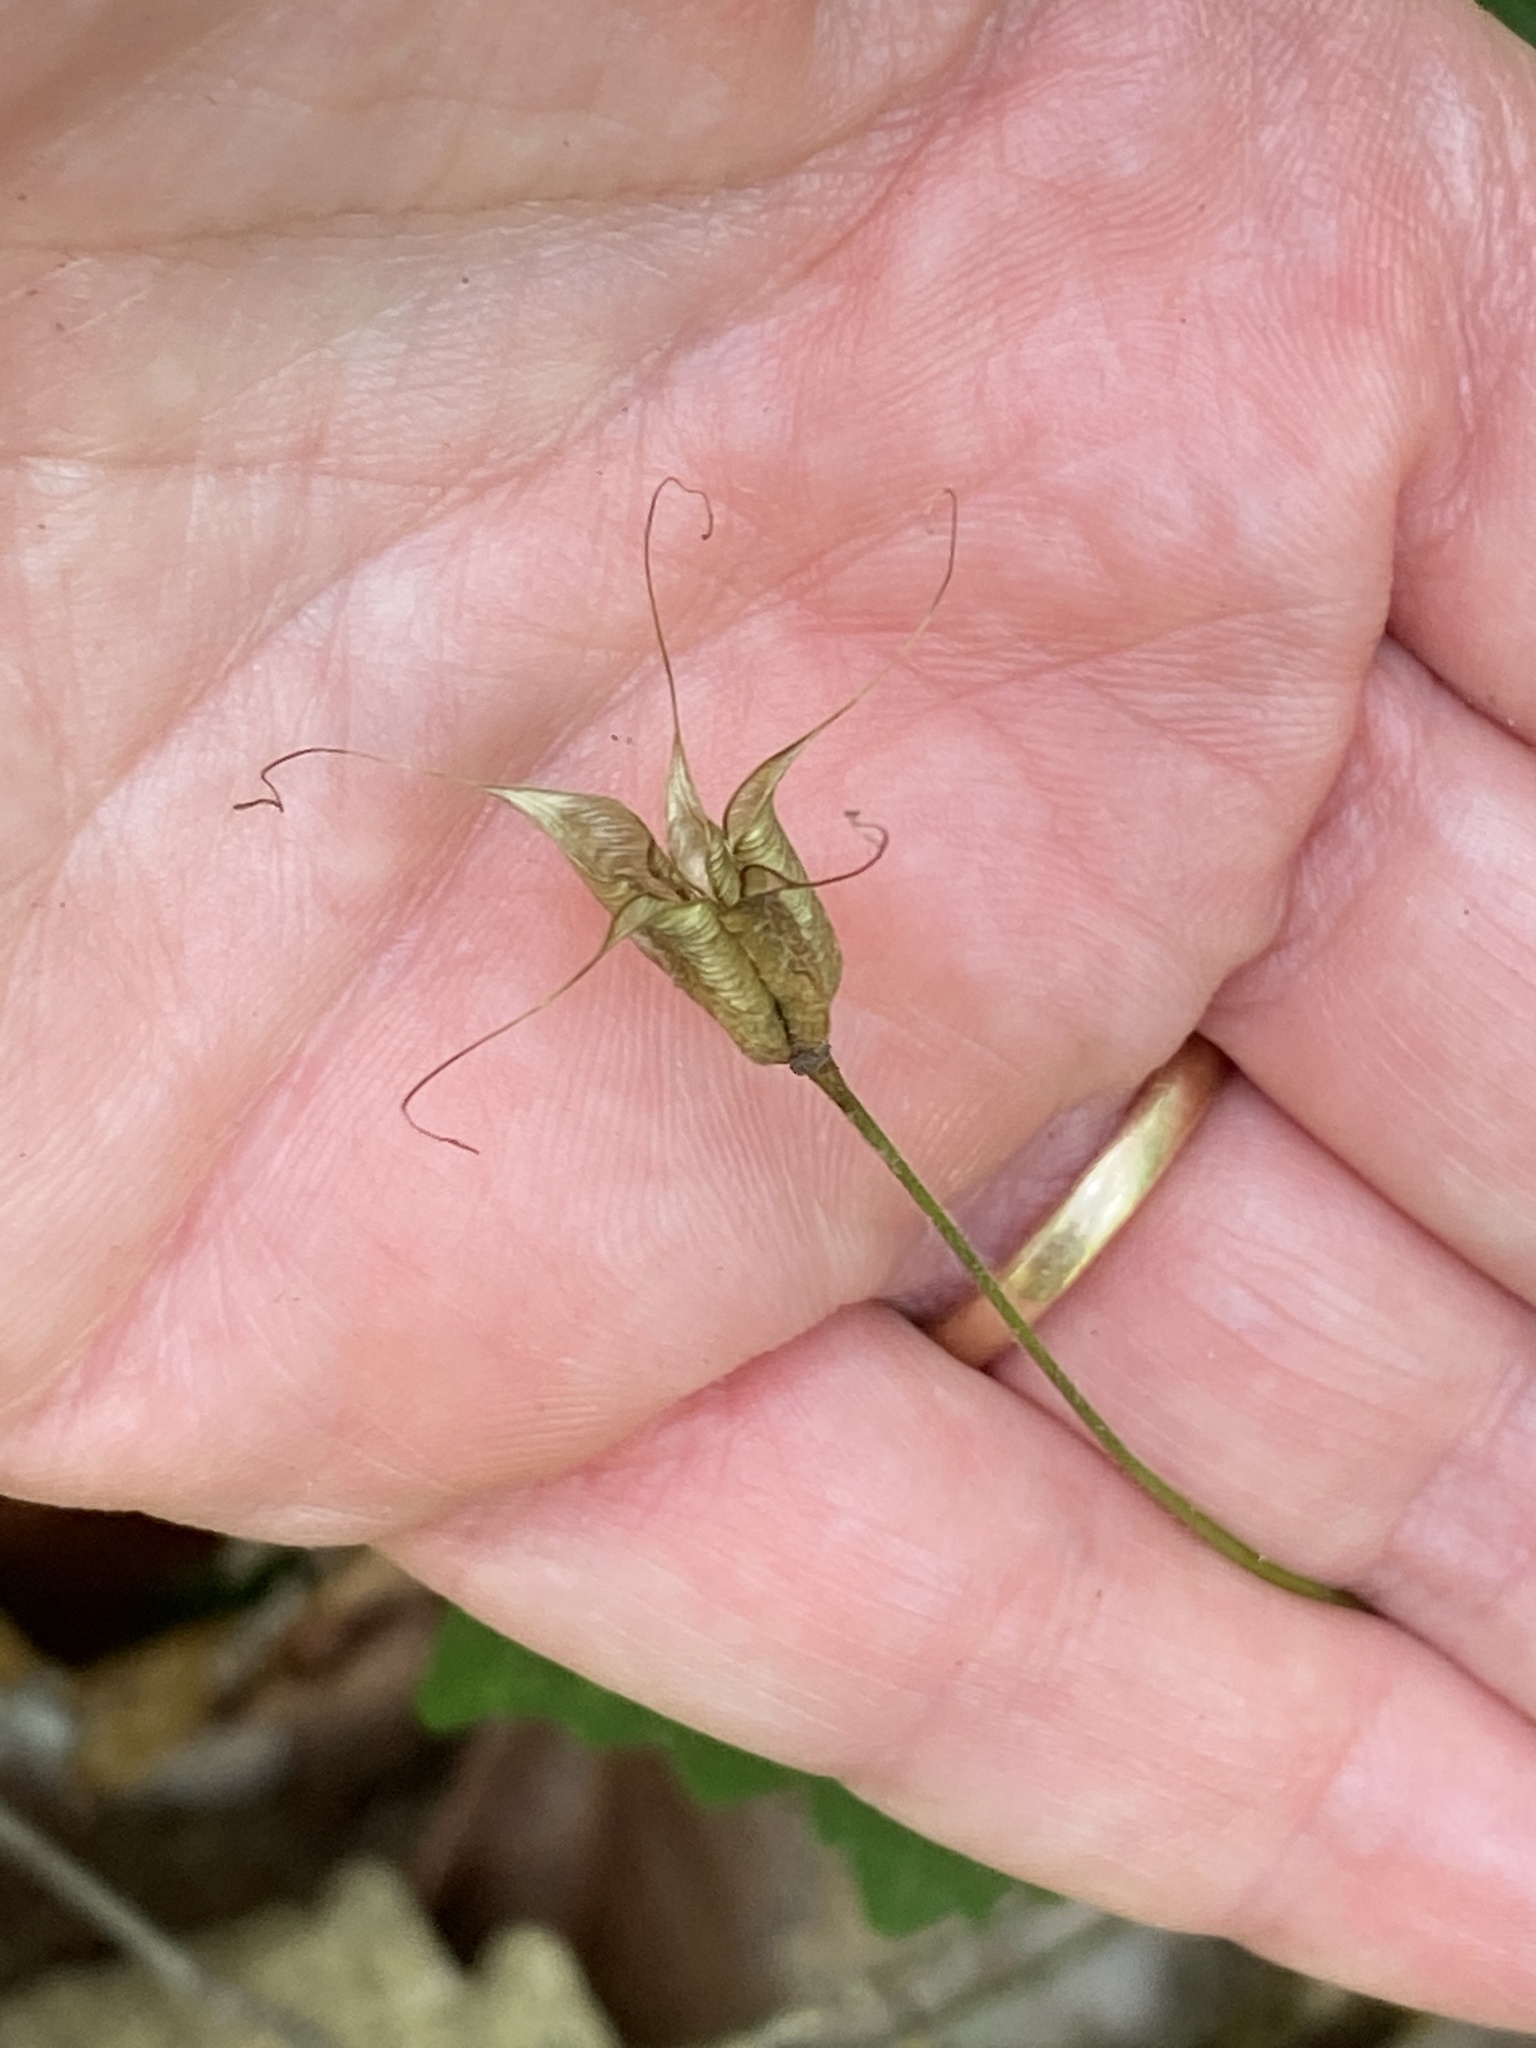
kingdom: Plantae
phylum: Tracheophyta
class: Magnoliopsida
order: Ranunculales
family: Ranunculaceae
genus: Aquilegia
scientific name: Aquilegia canadensis
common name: American columbine
